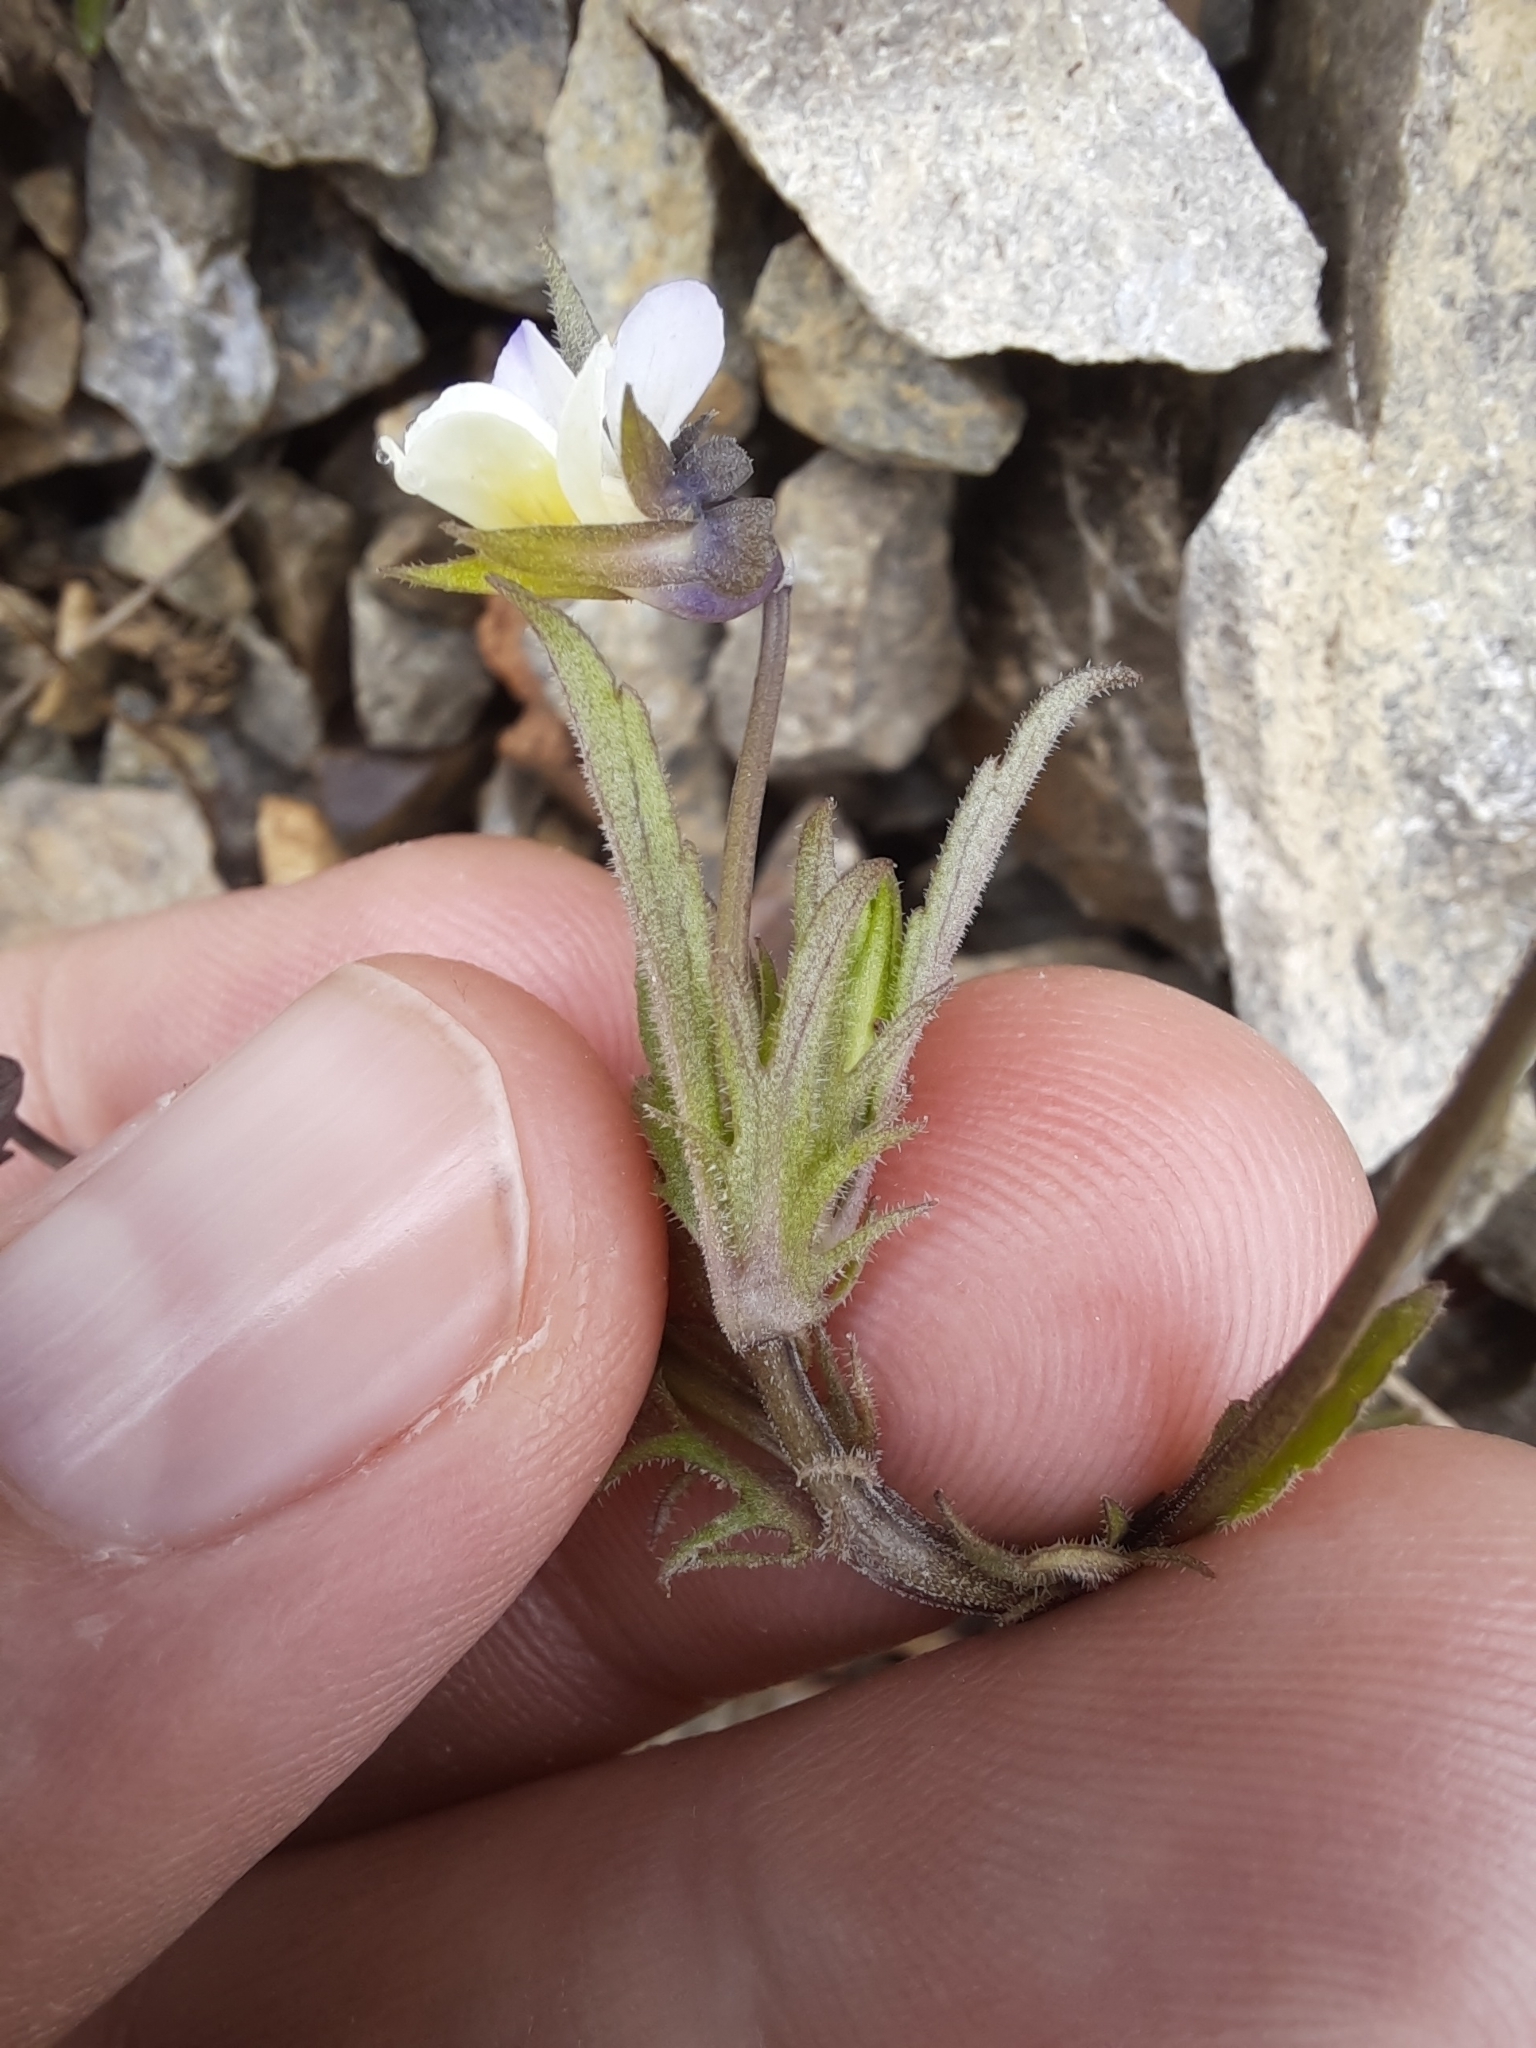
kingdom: Plantae
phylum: Tracheophyta
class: Magnoliopsida
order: Malpighiales
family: Violaceae
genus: Viola
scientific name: Viola arvensis
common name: Field pansy
